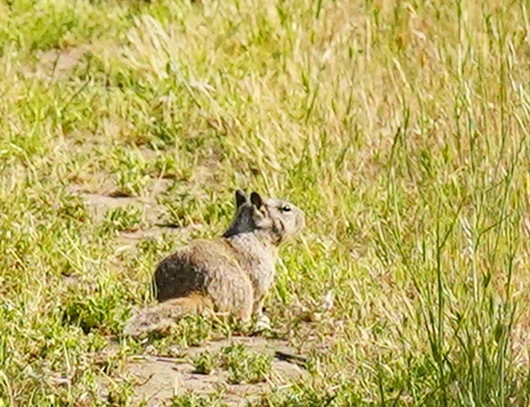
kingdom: Animalia
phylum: Chordata
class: Mammalia
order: Rodentia
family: Sciuridae
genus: Otospermophilus
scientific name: Otospermophilus beecheyi
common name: California ground squirrel
